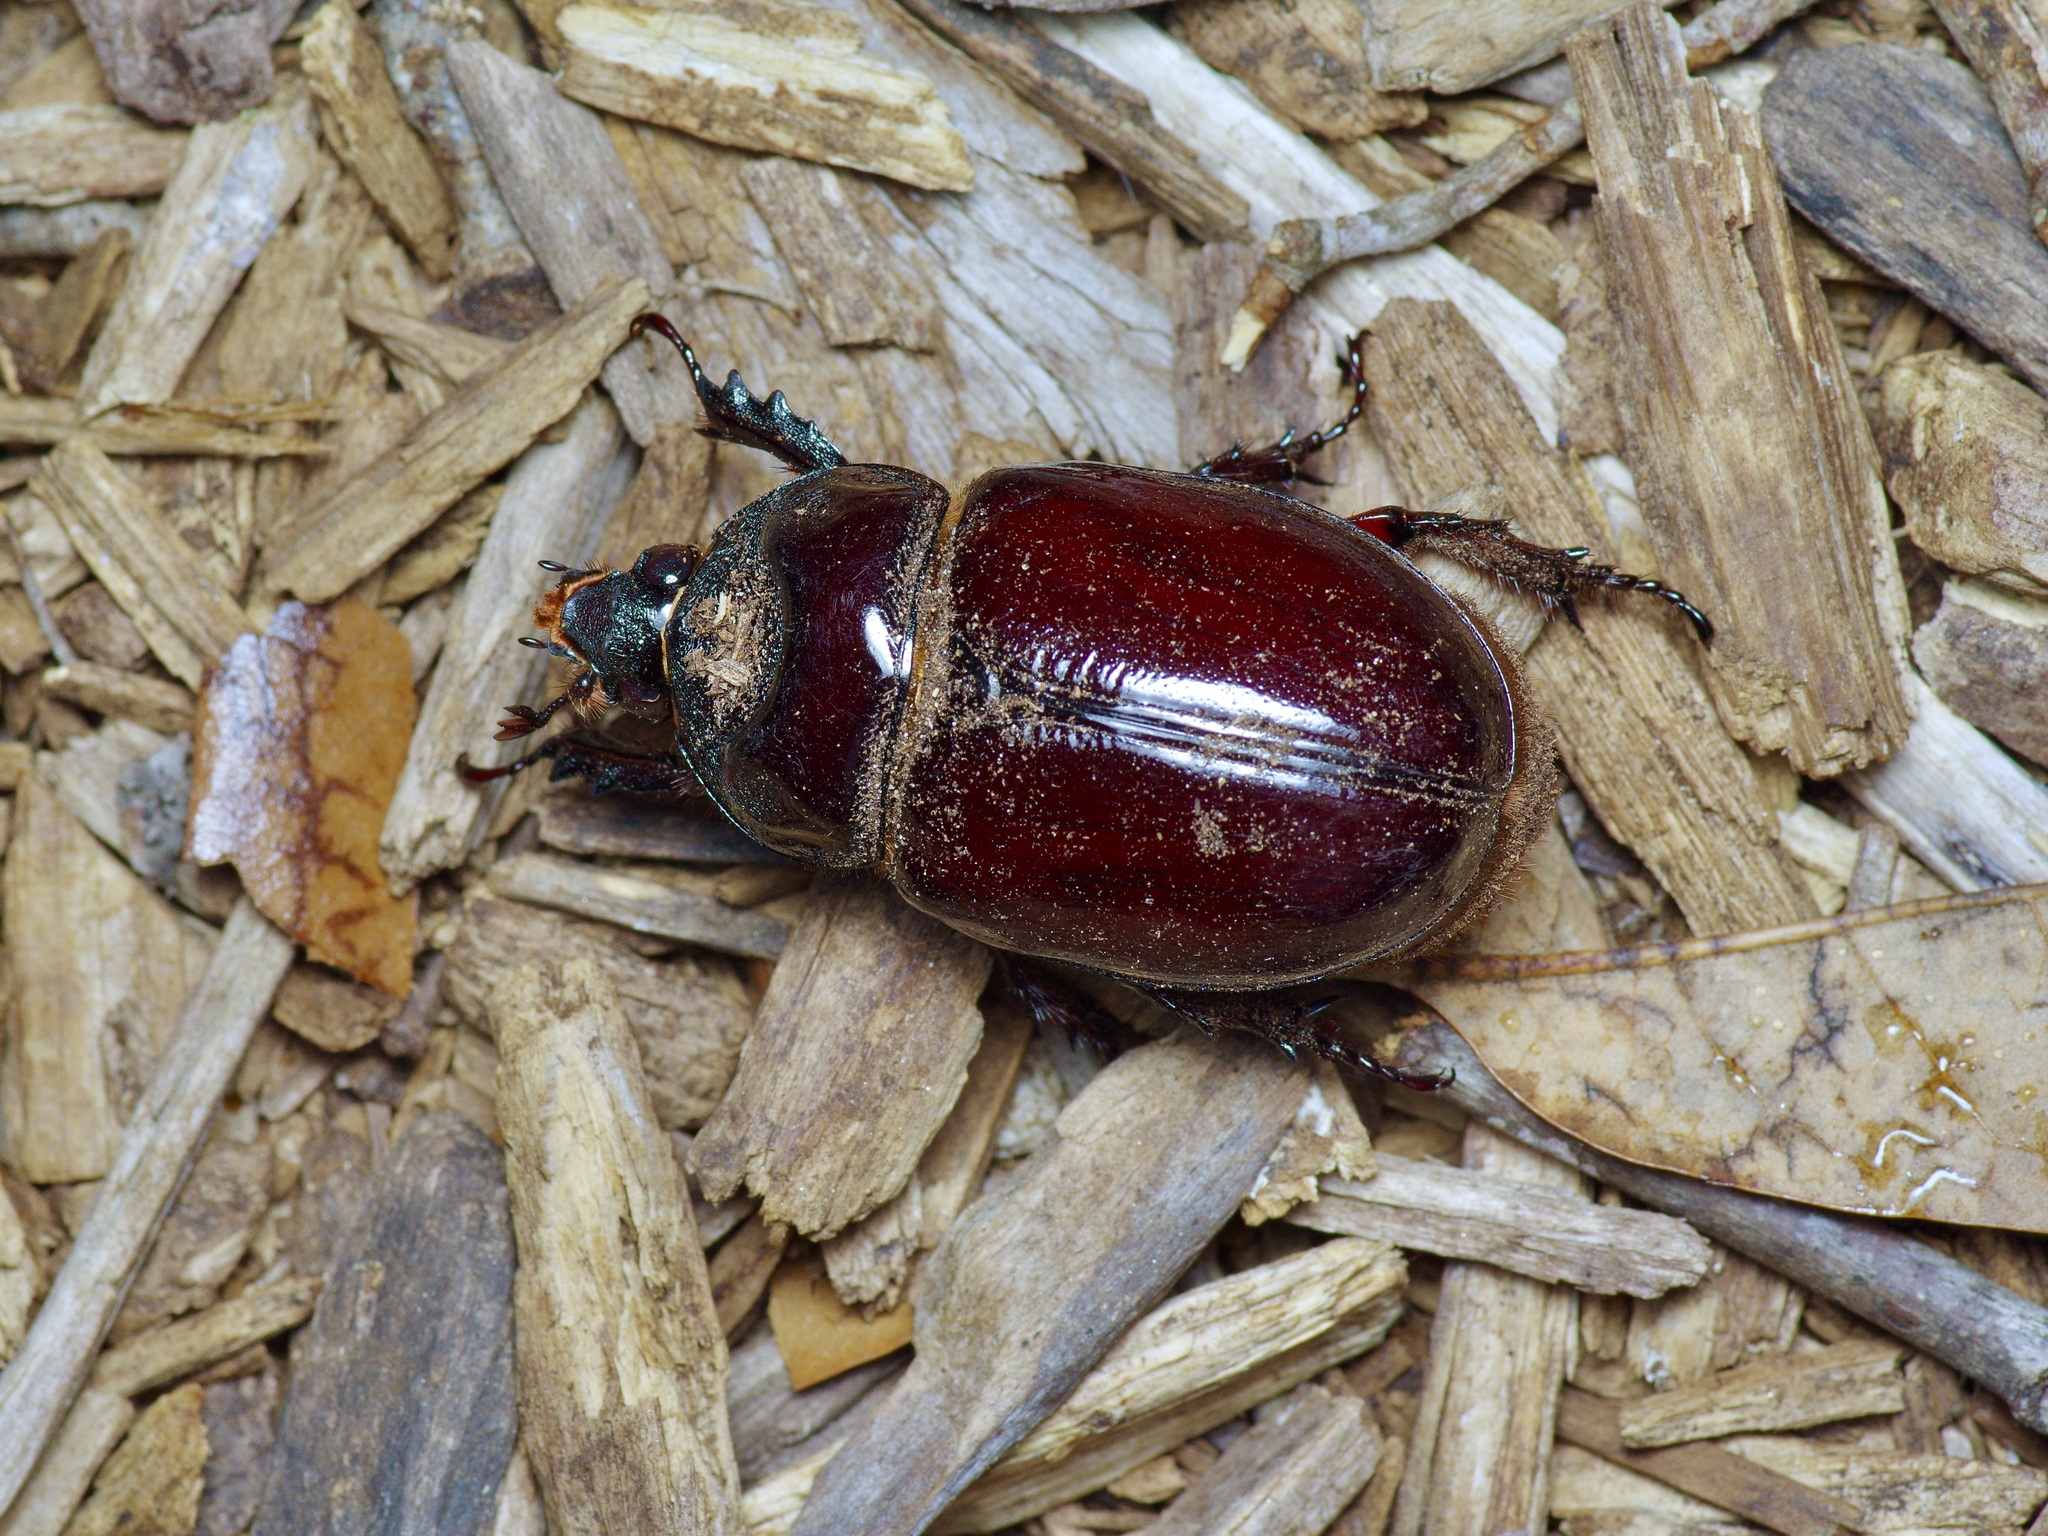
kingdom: Animalia
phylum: Arthropoda
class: Insecta
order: Coleoptera
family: Scarabaeidae
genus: Strategus
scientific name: Strategus aloeus
